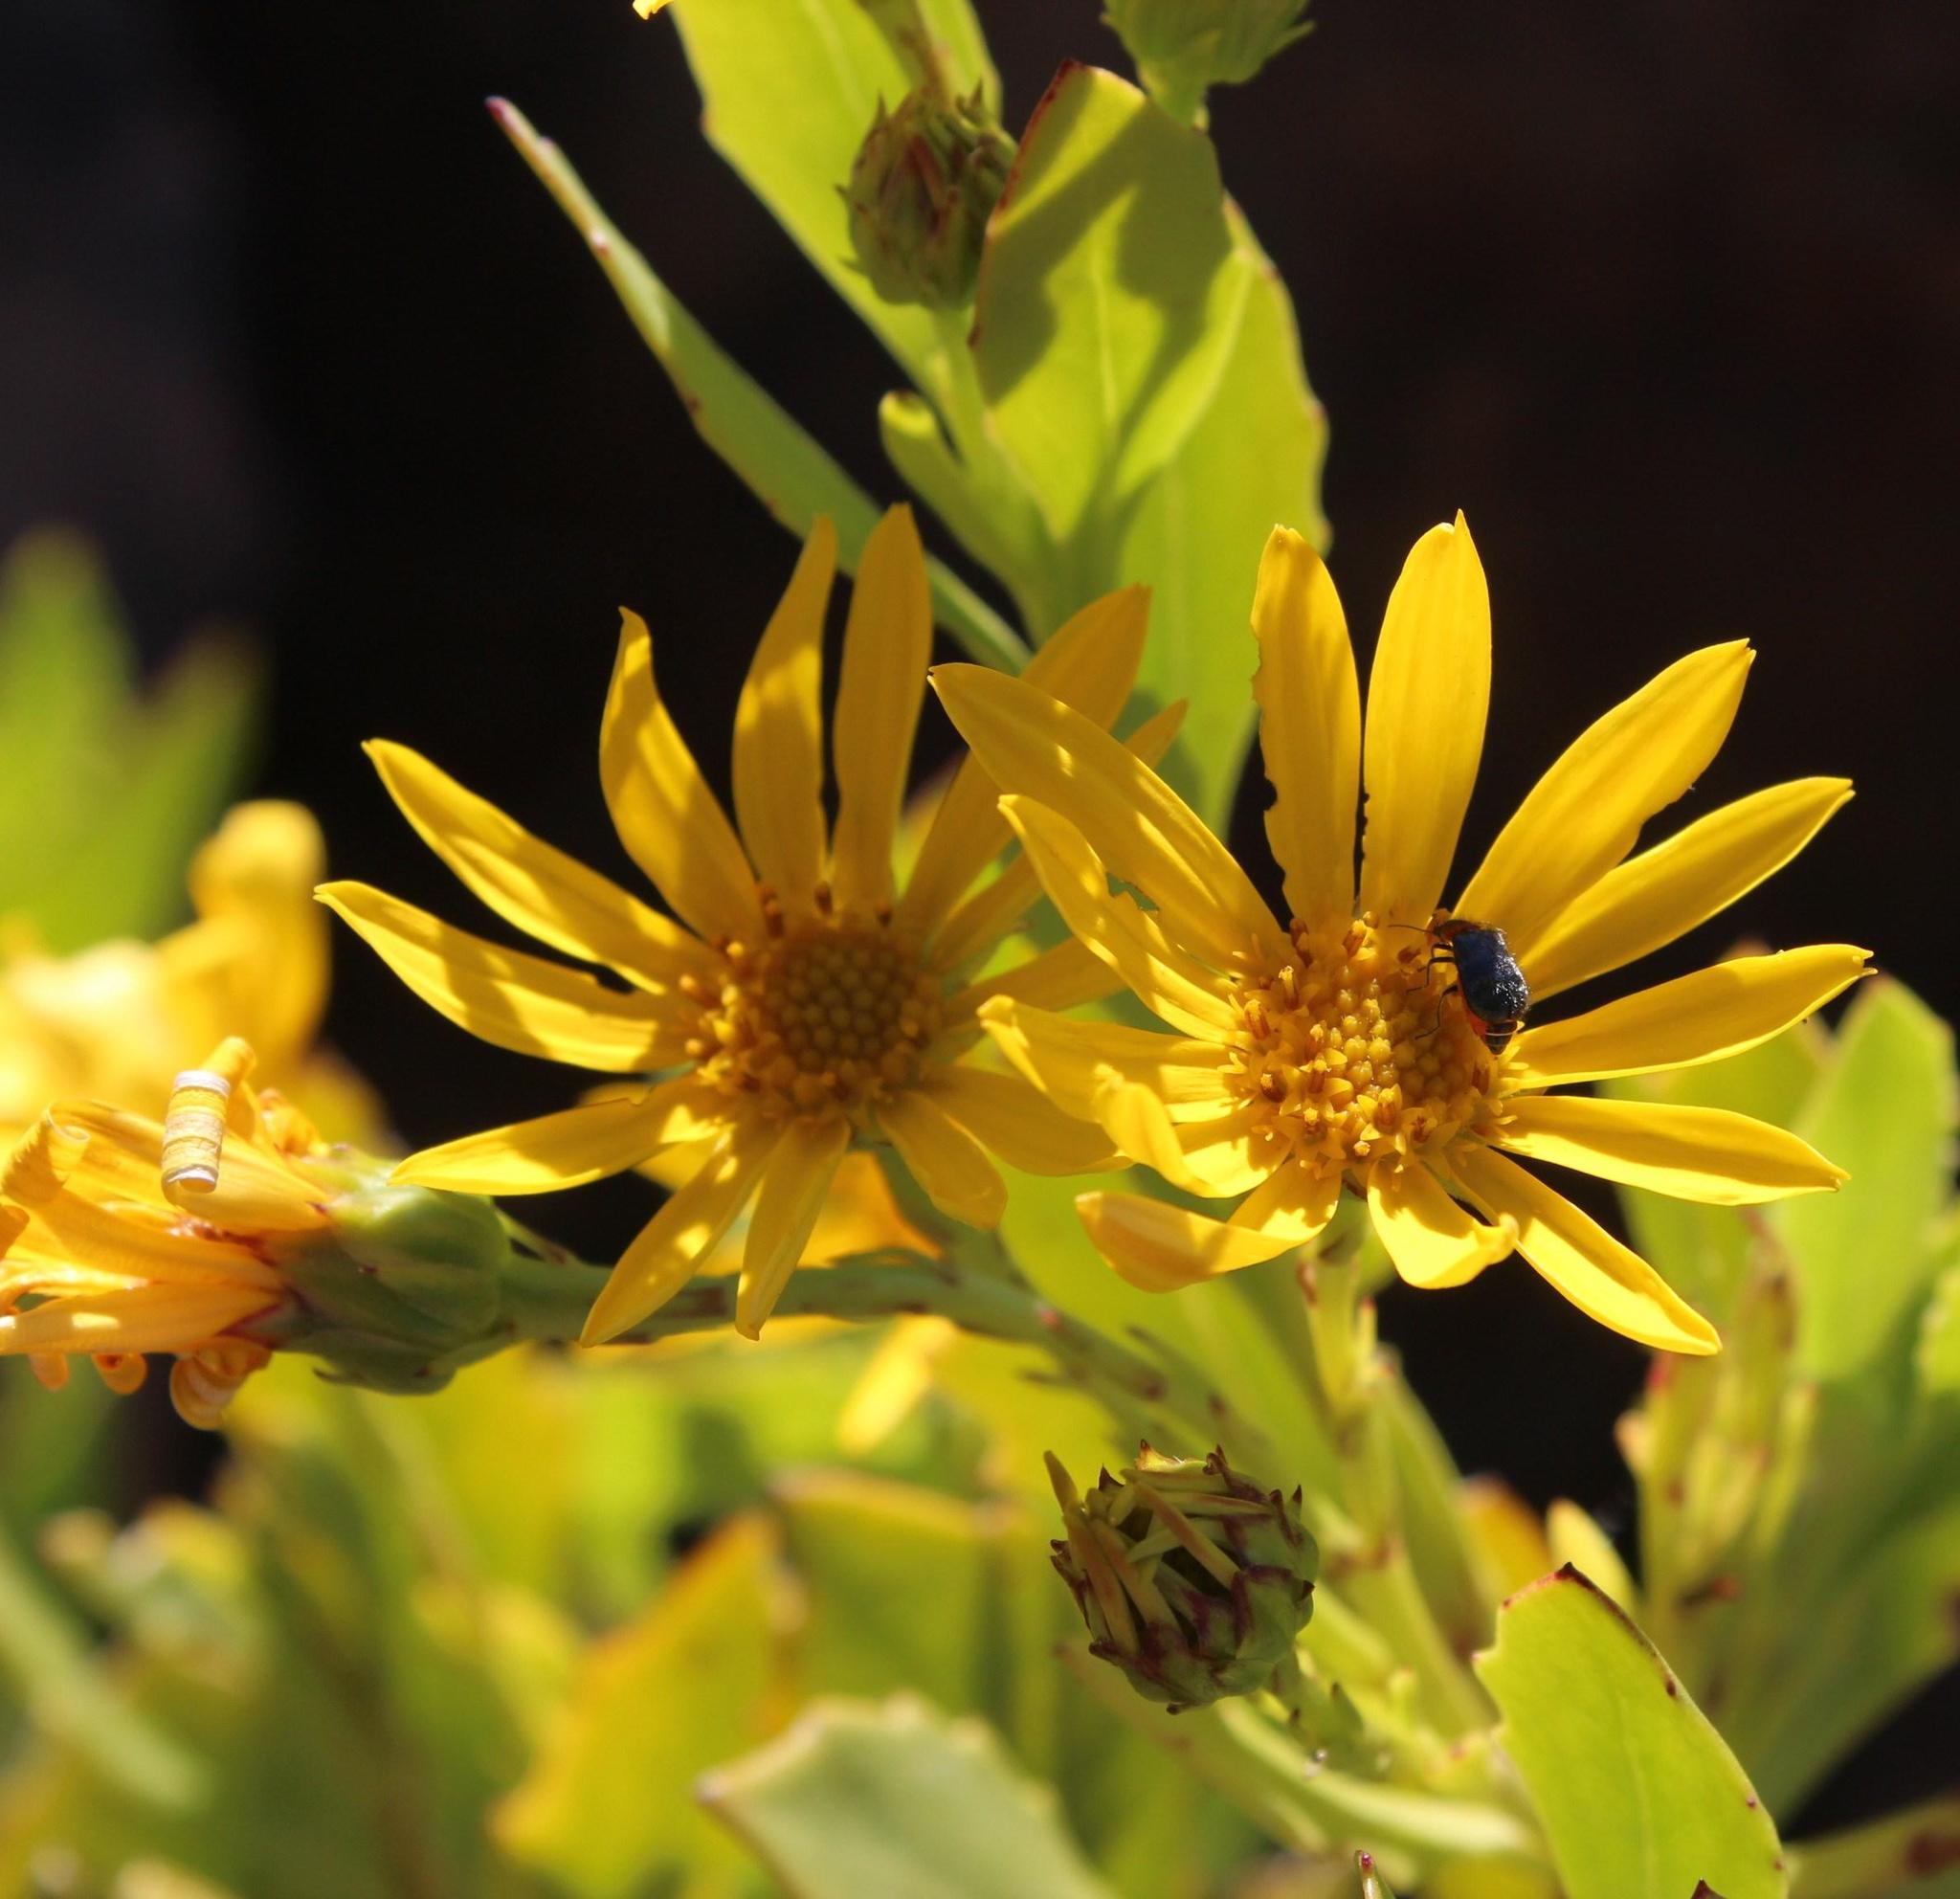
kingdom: Plantae
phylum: Tracheophyta
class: Magnoliopsida
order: Asterales
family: Asteraceae
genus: Osteospermum
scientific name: Osteospermum moniliferum
